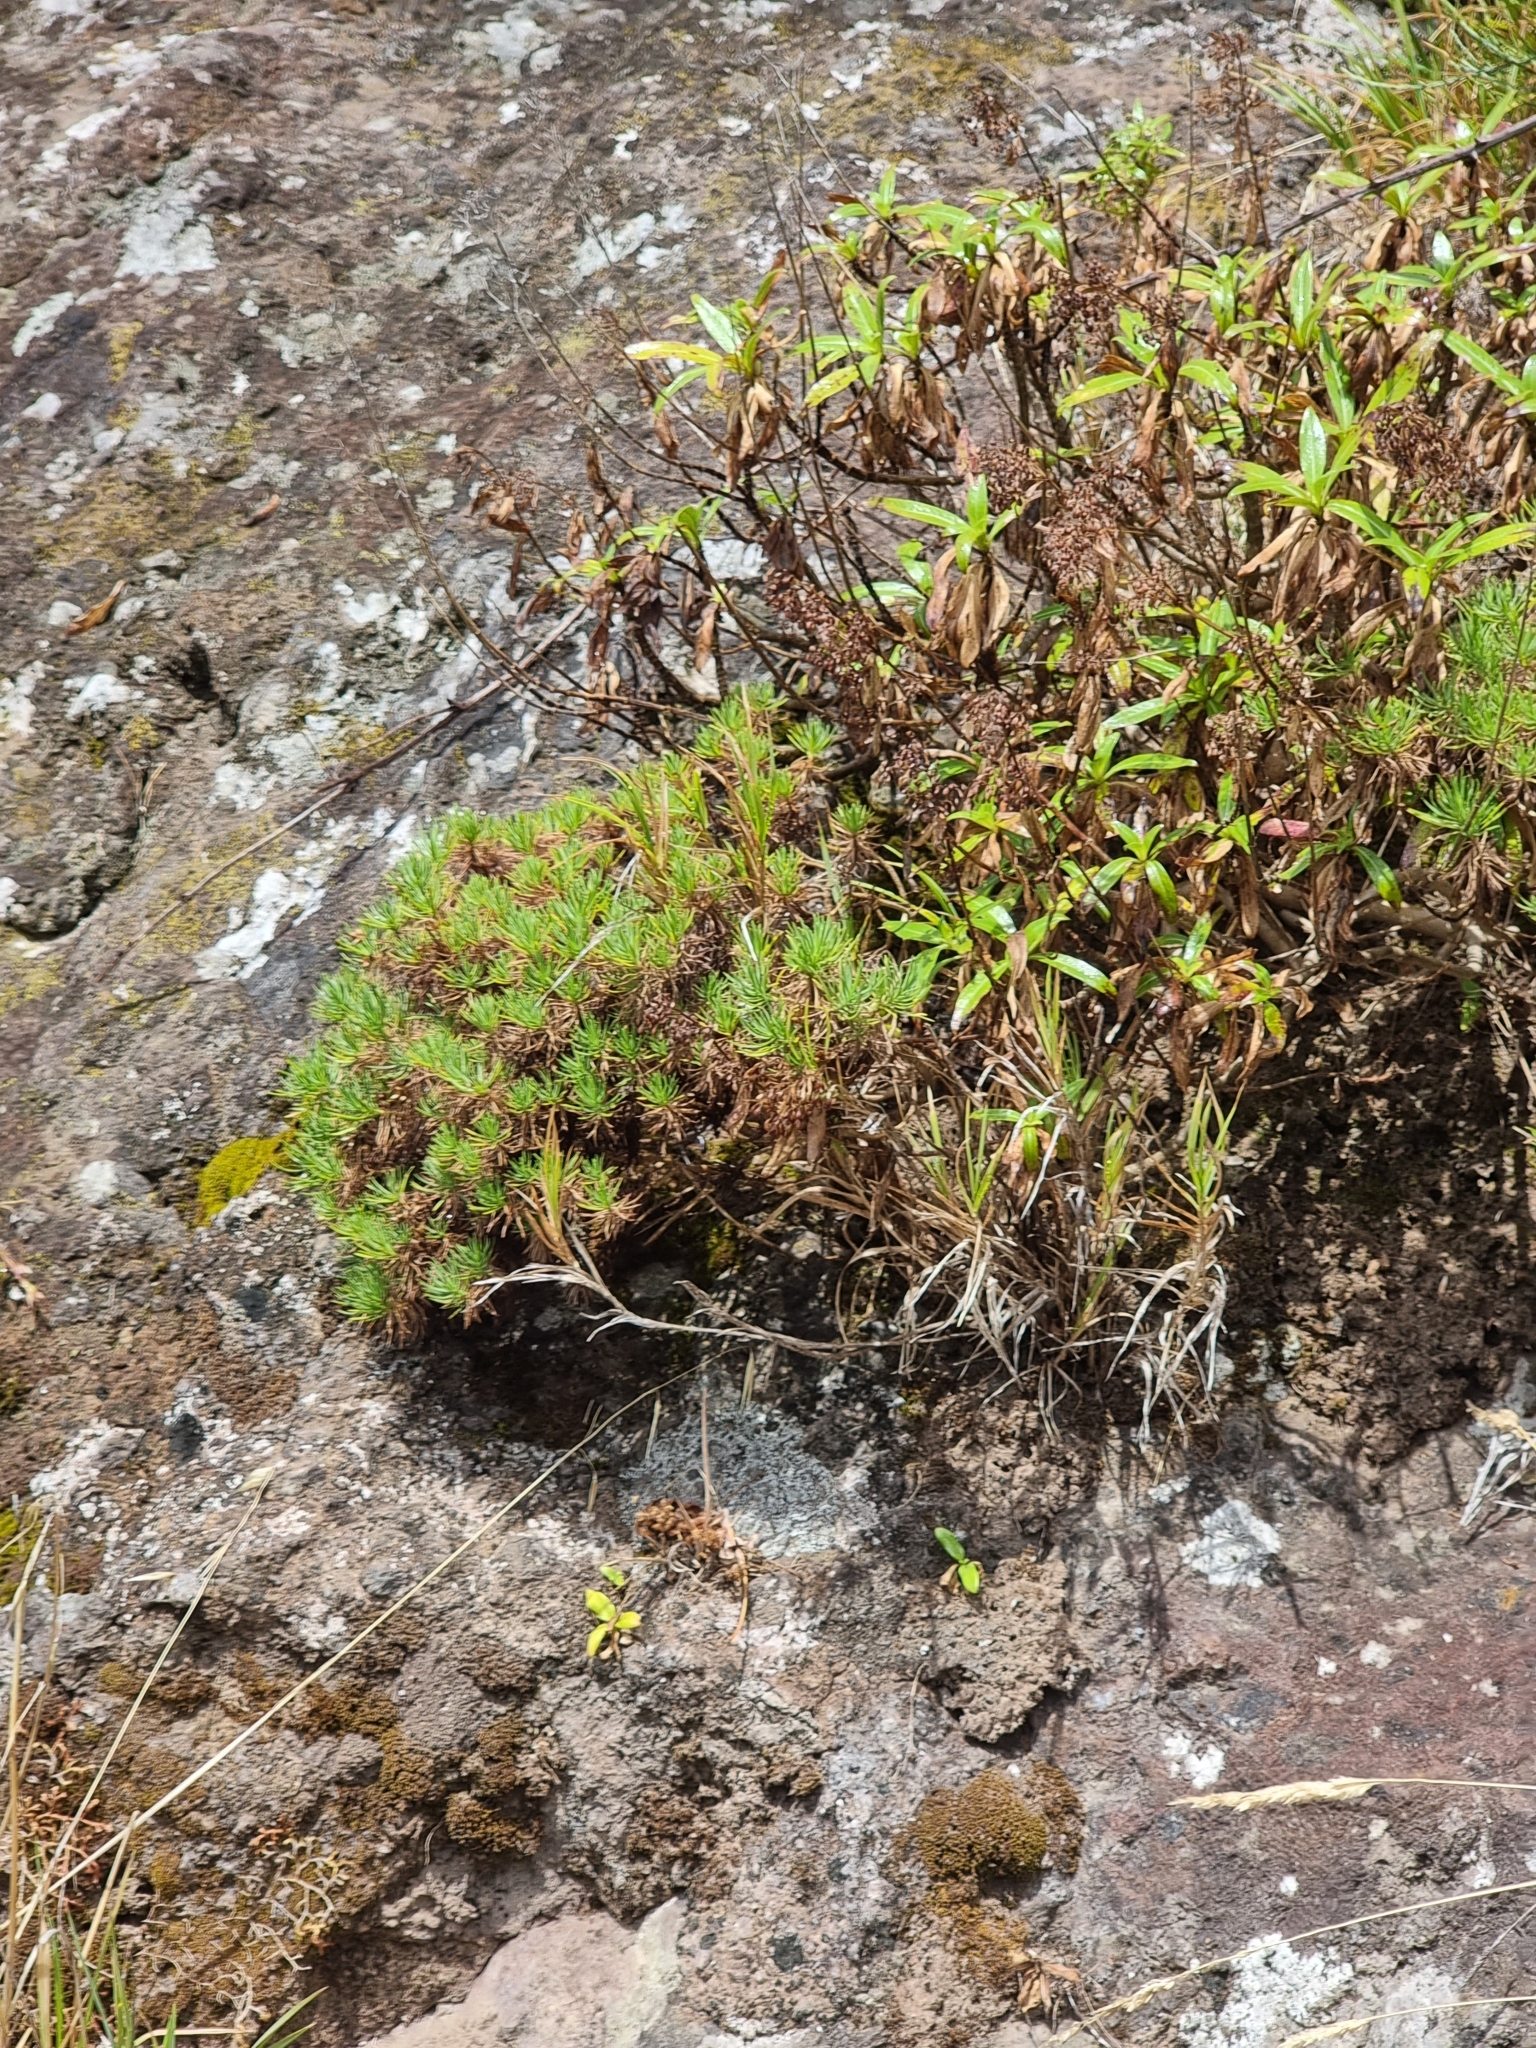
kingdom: Plantae
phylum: Tracheophyta
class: Magnoliopsida
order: Lamiales
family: Plantaginaceae
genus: Plantago
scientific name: Plantago arborescens
